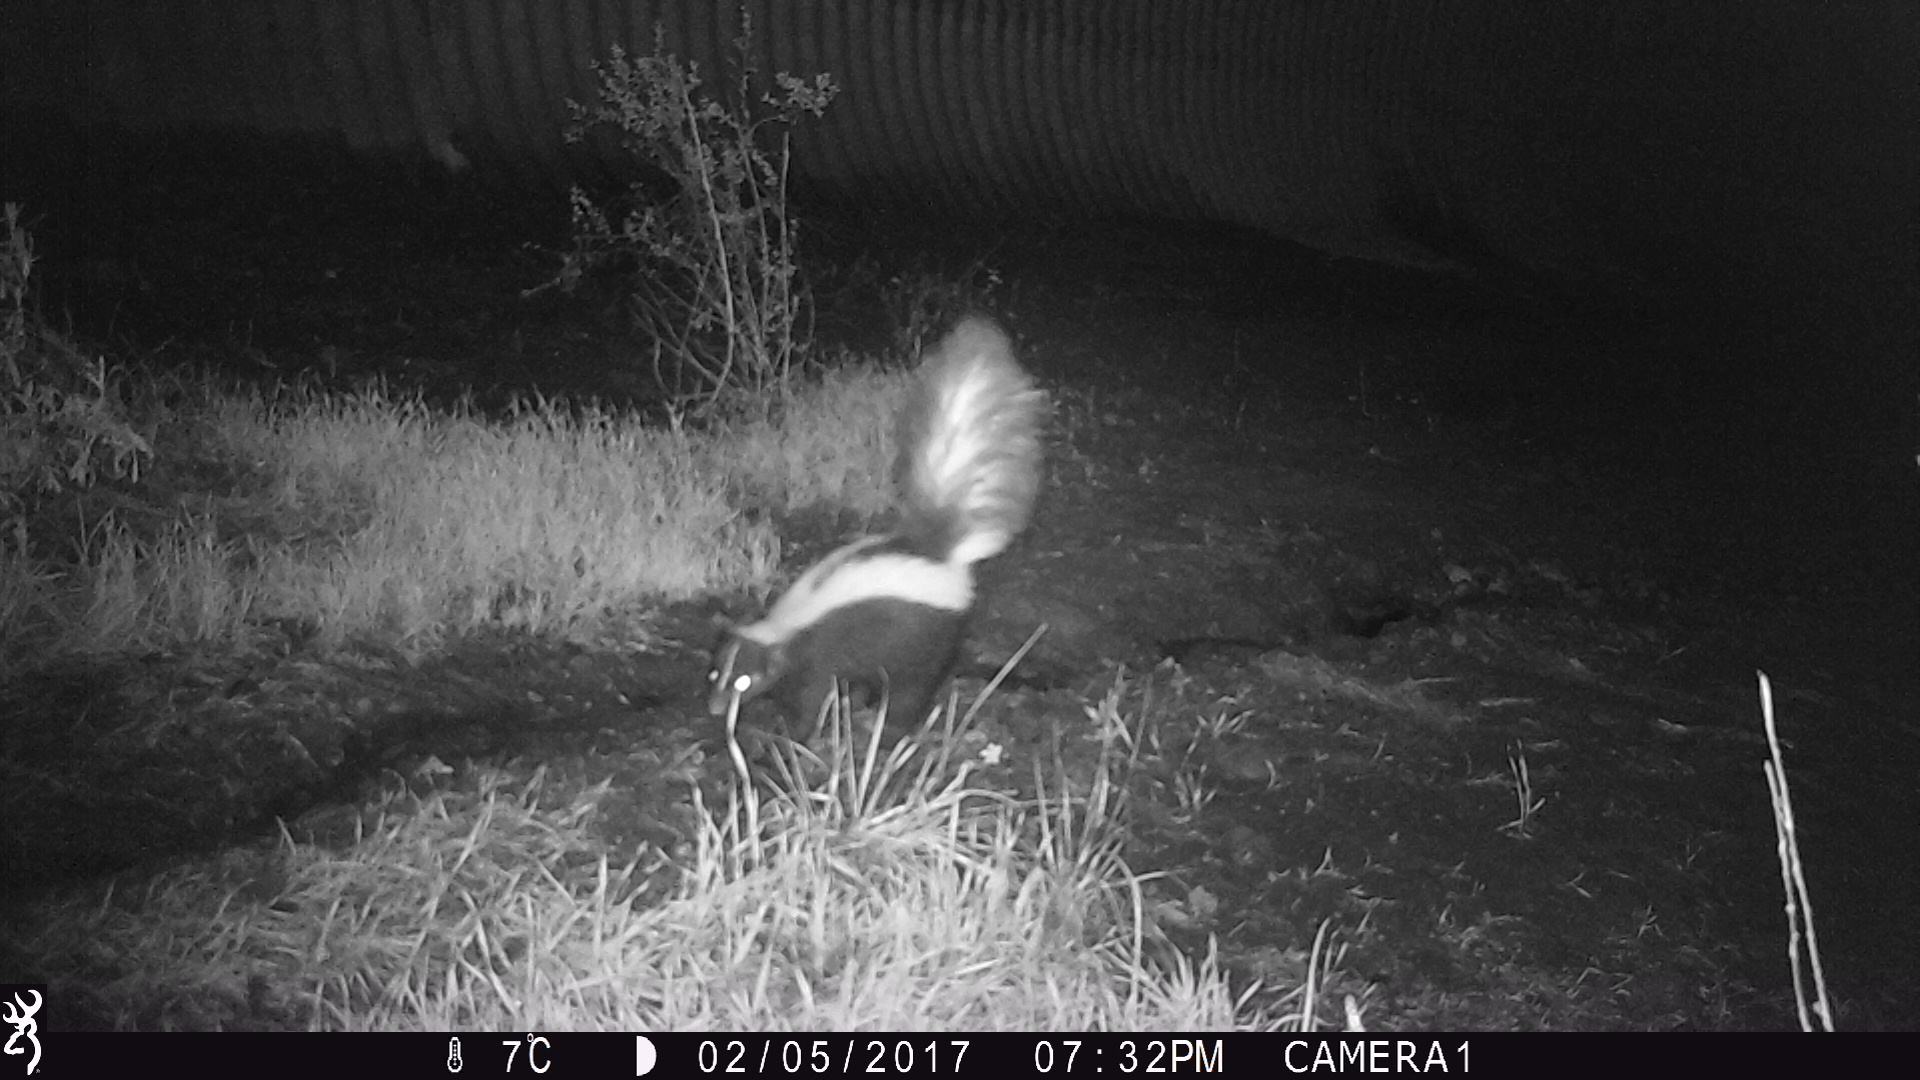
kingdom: Animalia
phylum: Chordata
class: Mammalia
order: Carnivora
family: Mephitidae
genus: Mephitis
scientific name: Mephitis mephitis
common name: Striped skunk
